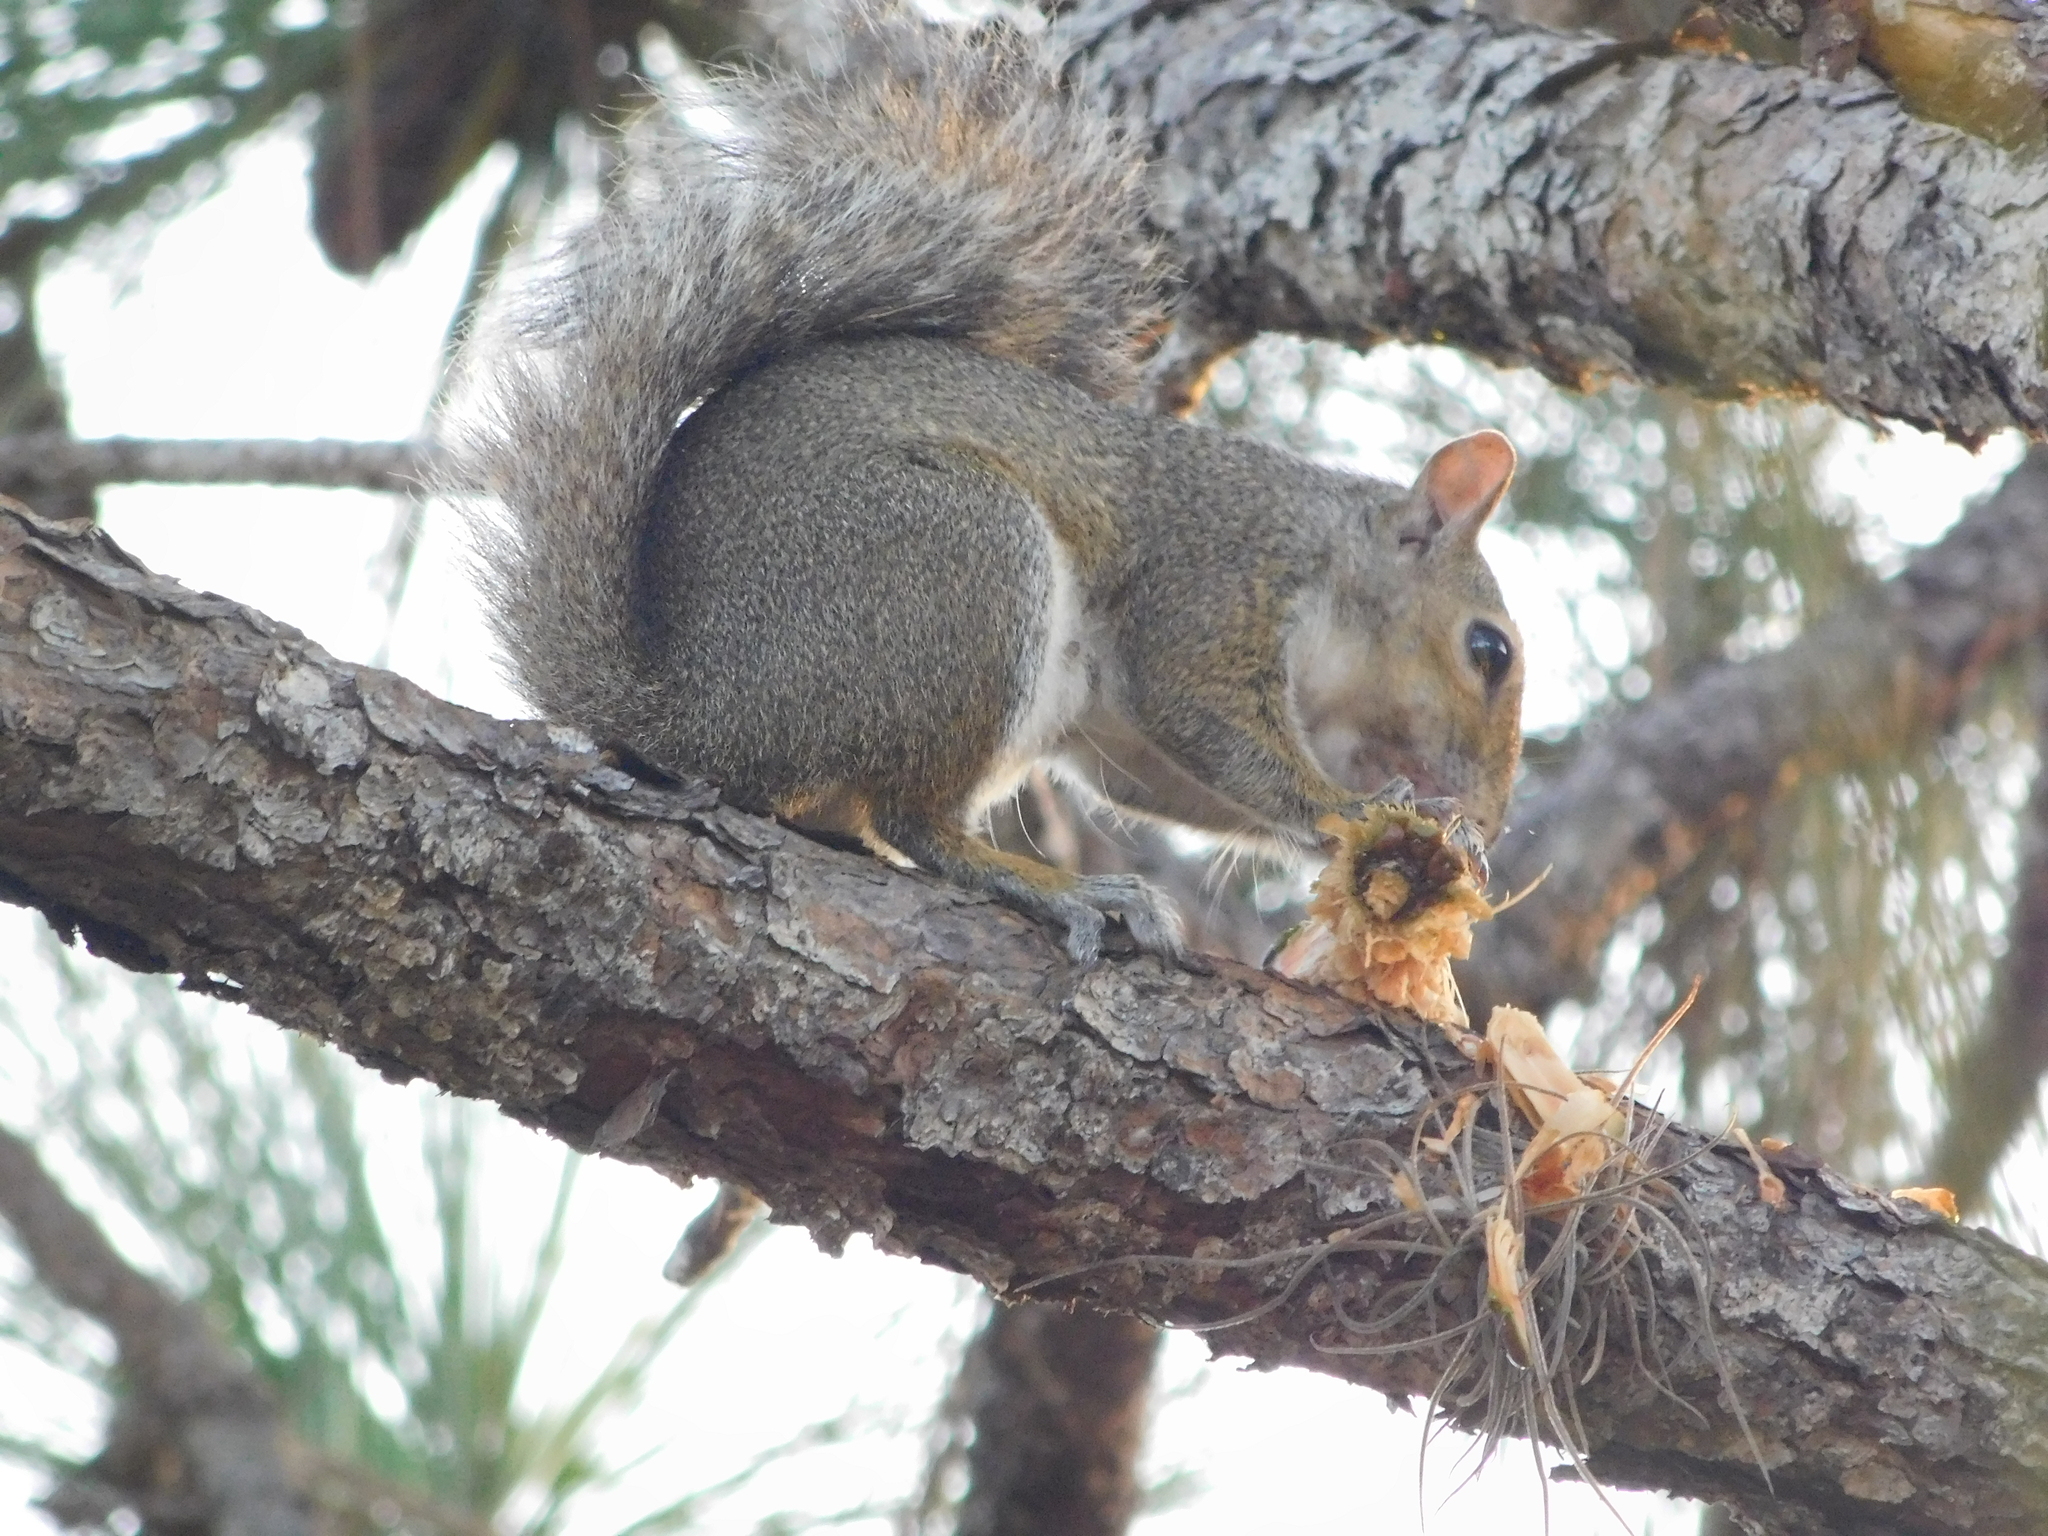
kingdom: Animalia
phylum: Chordata
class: Mammalia
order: Rodentia
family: Sciuridae
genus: Sciurus
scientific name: Sciurus carolinensis
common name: Eastern gray squirrel
